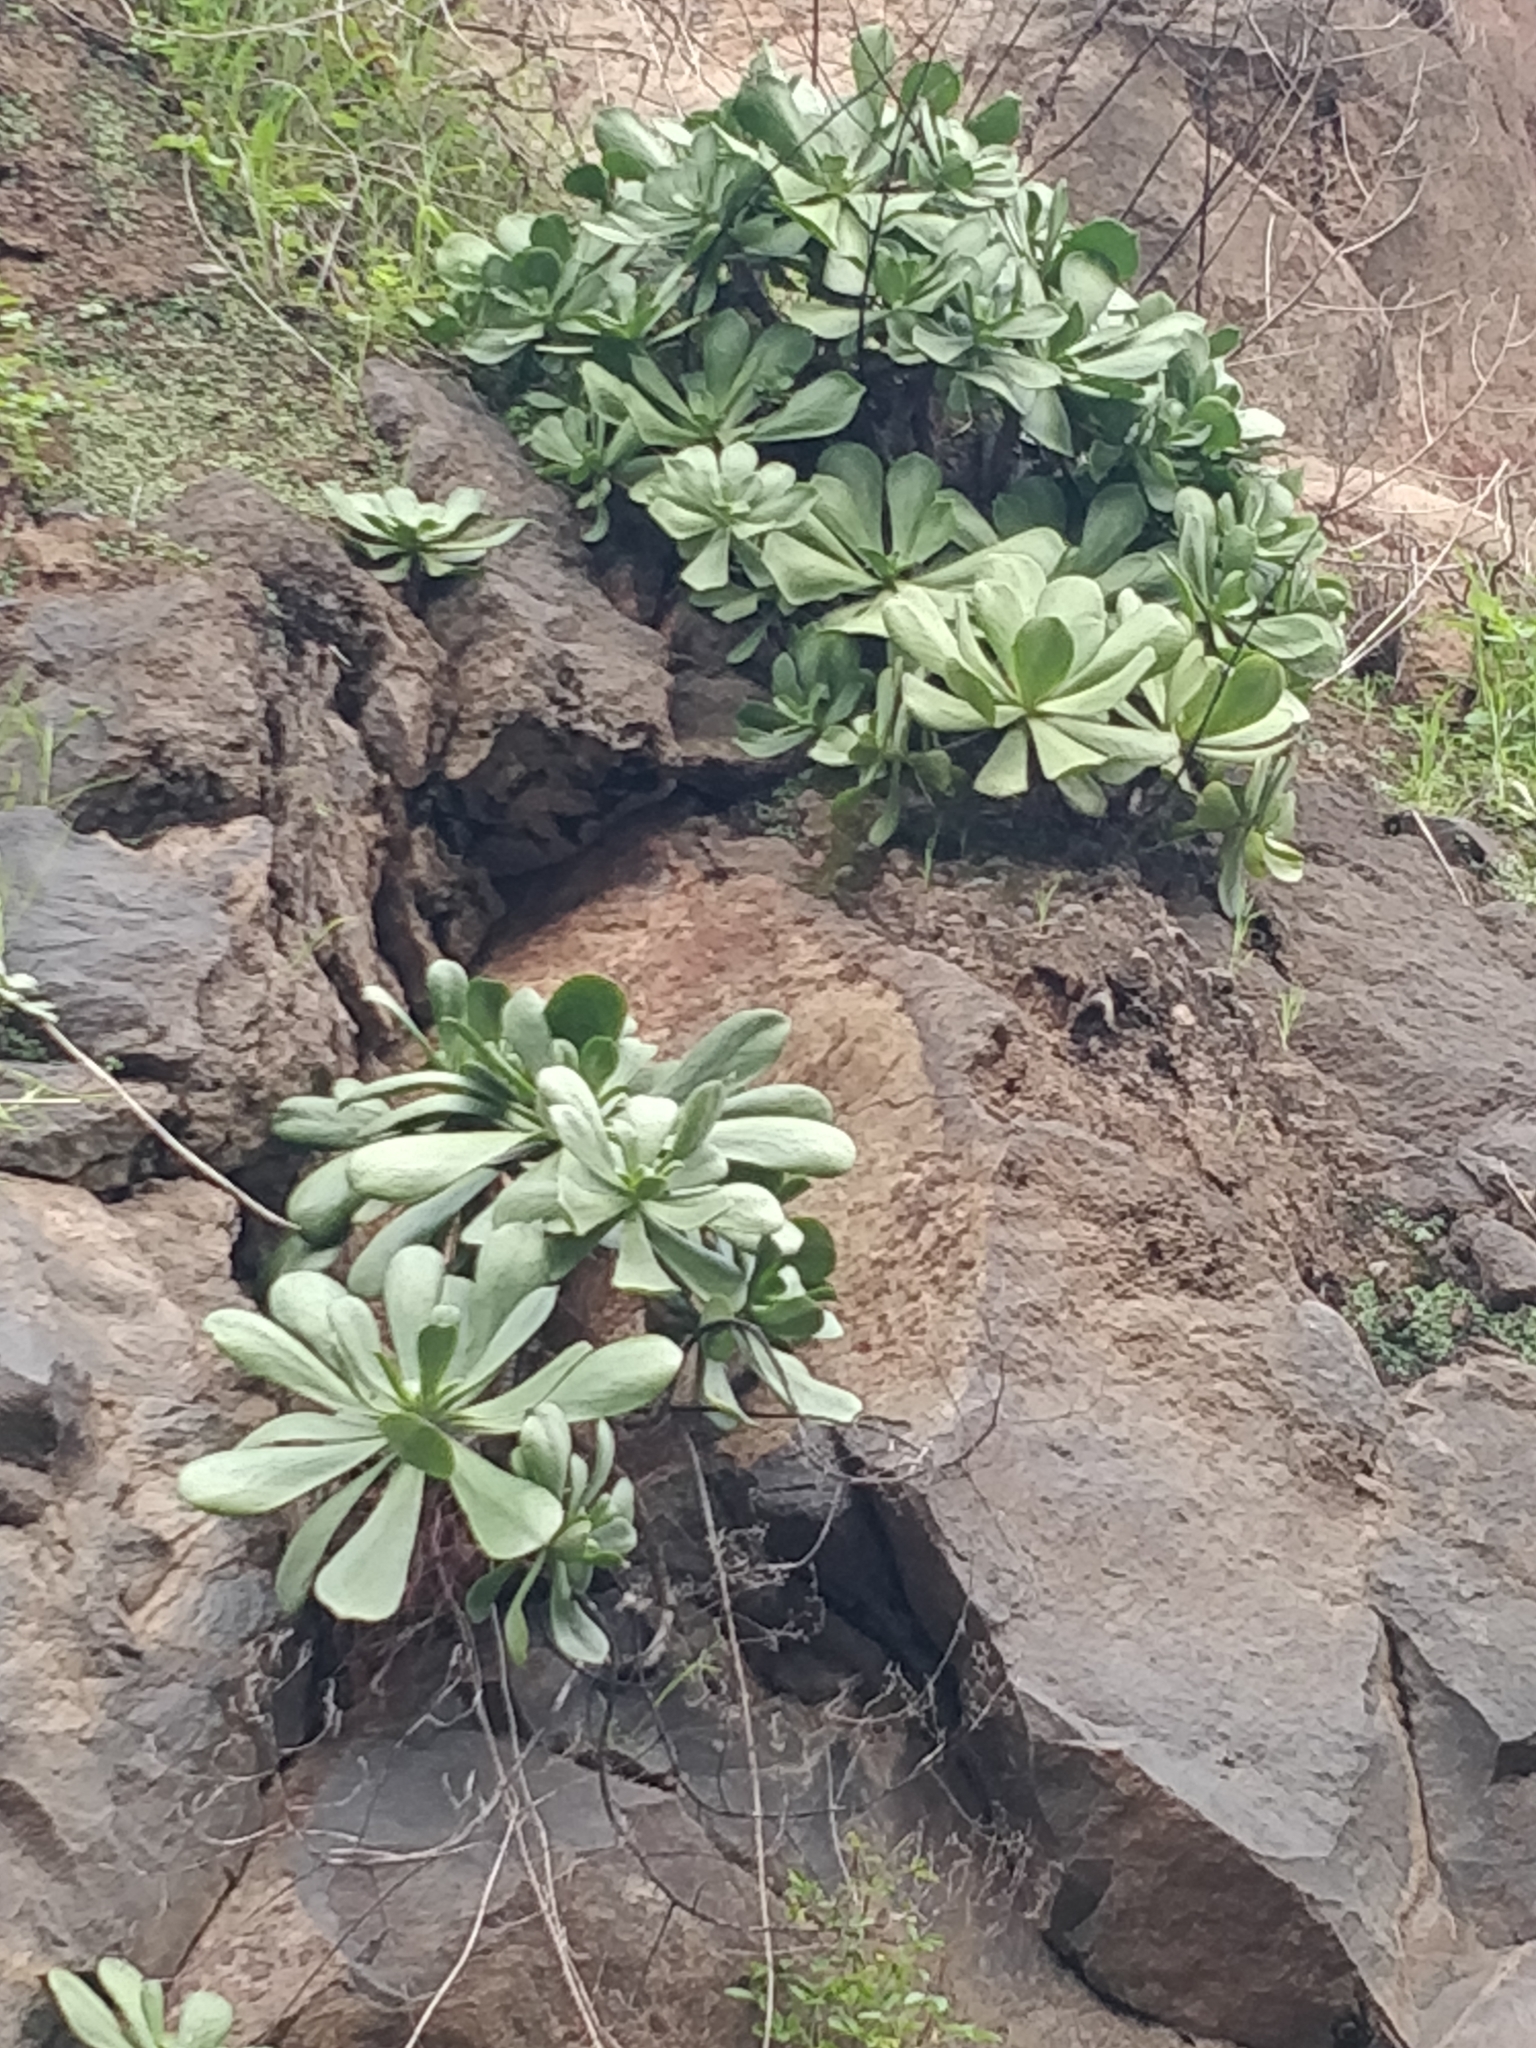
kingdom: Plantae
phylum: Tracheophyta
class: Magnoliopsida
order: Saxifragales
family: Crassulaceae
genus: Aeonium
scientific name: Aeonium glutinosum
